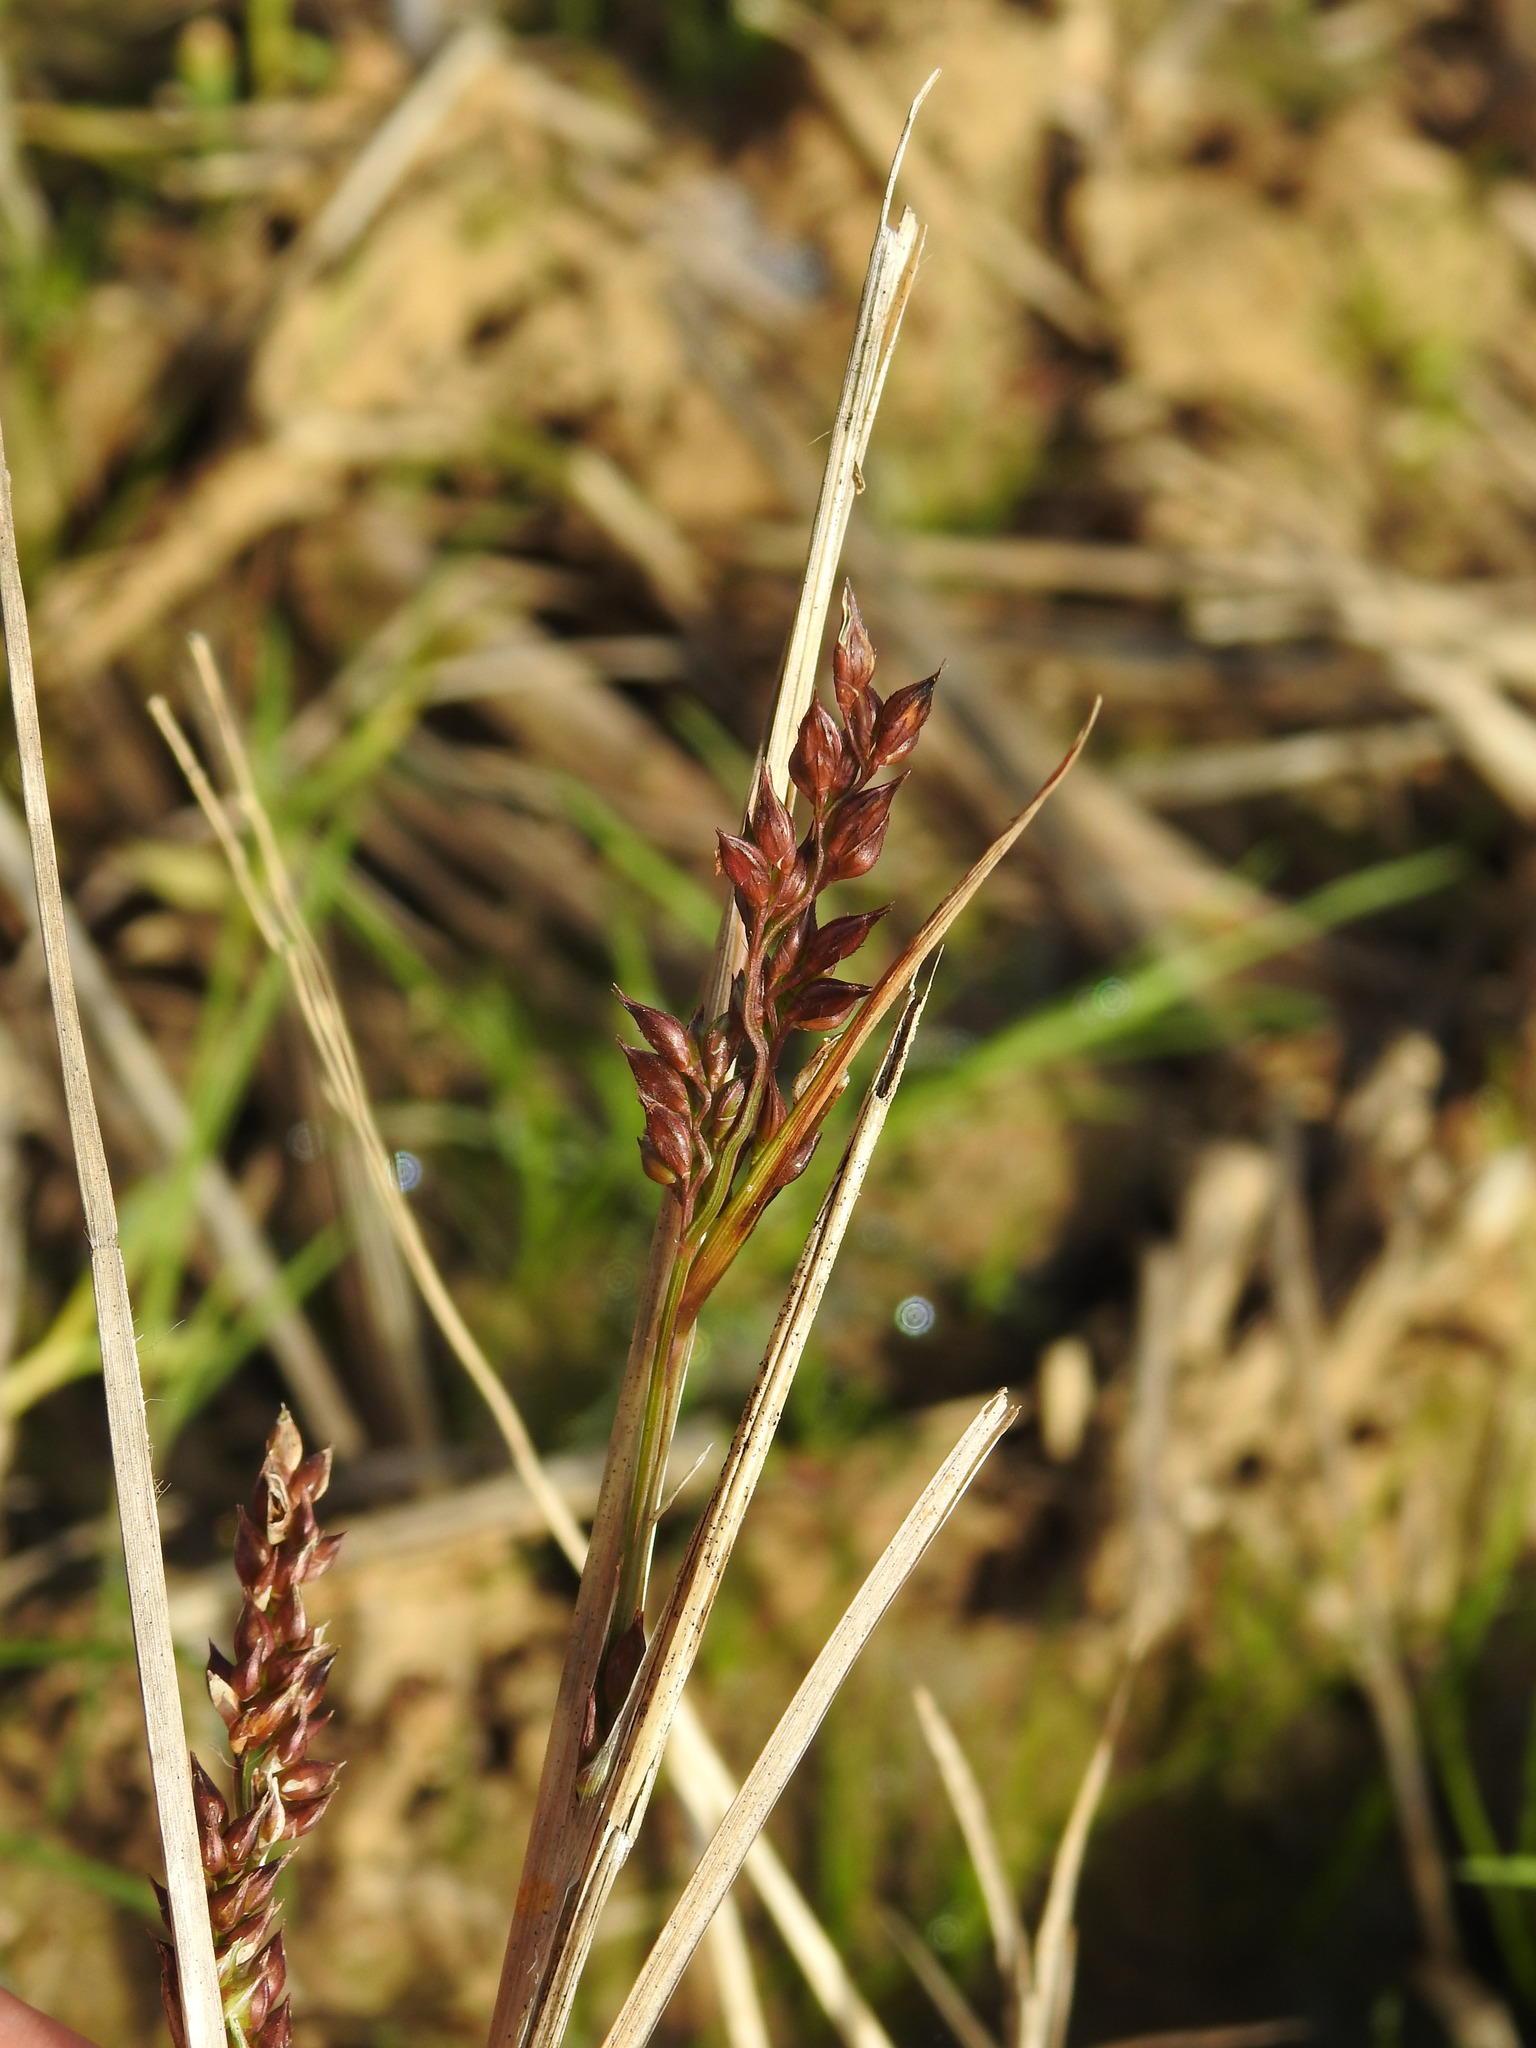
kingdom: Plantae
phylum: Tracheophyta
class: Liliopsida
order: Poales
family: Poaceae
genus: Echinochloa
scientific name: Echinochloa crus-galli
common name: Cockspur
